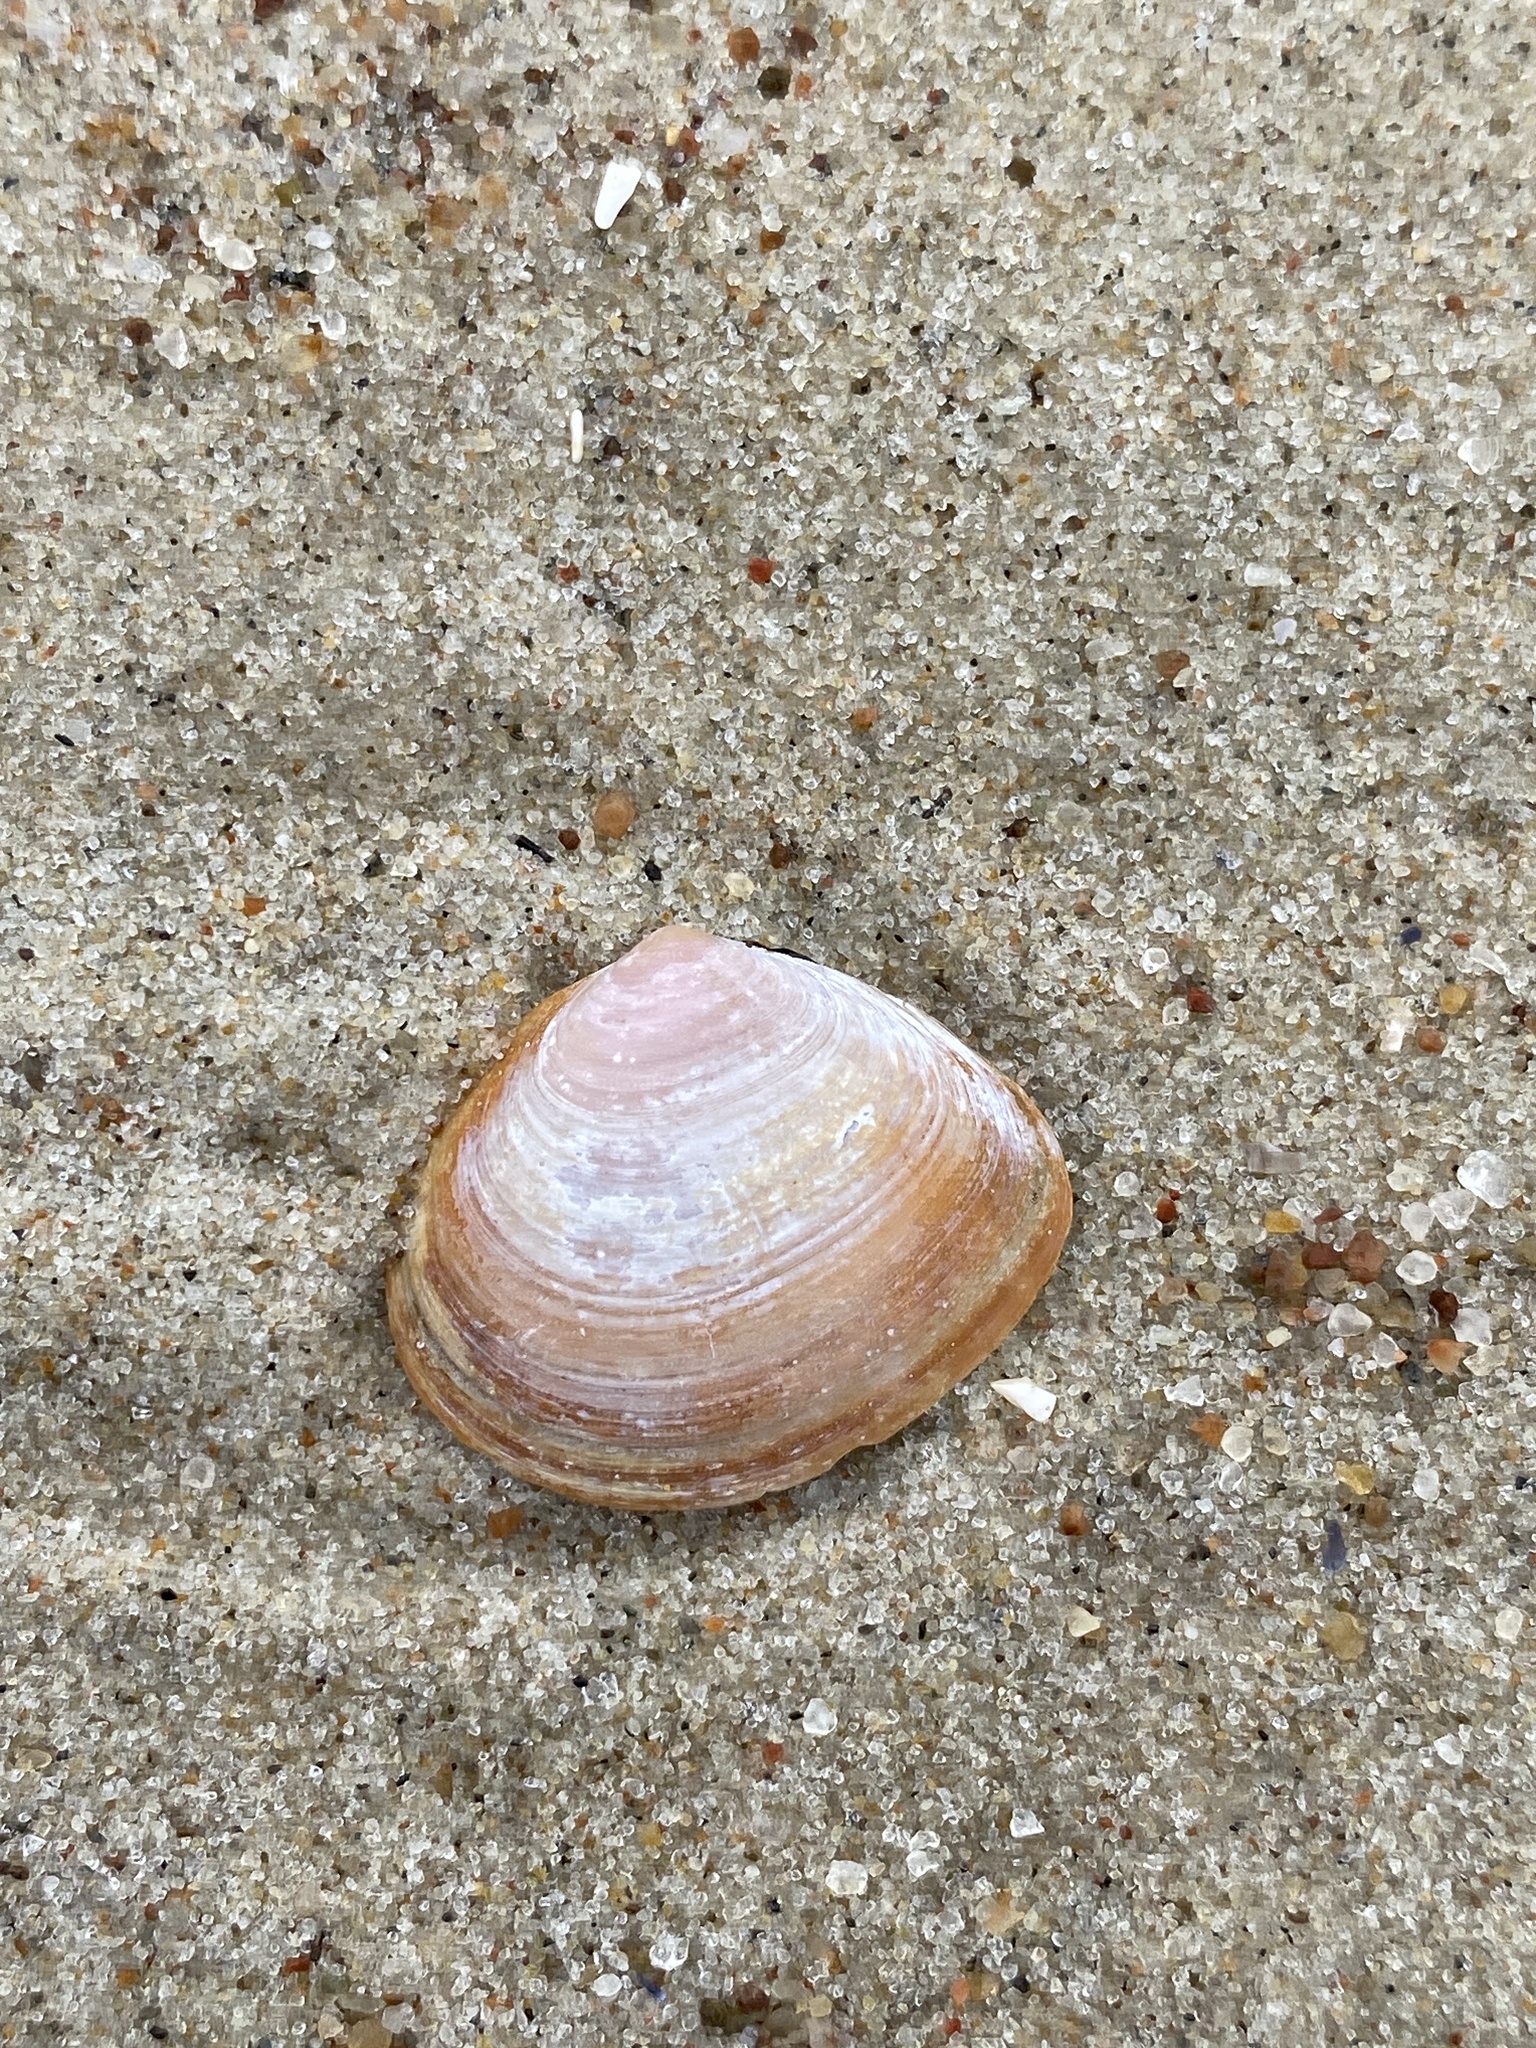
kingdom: Animalia
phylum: Mollusca
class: Bivalvia
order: Cardiida
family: Tellinidae
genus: Macoma
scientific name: Macoma balthica
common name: Baltic tellin
